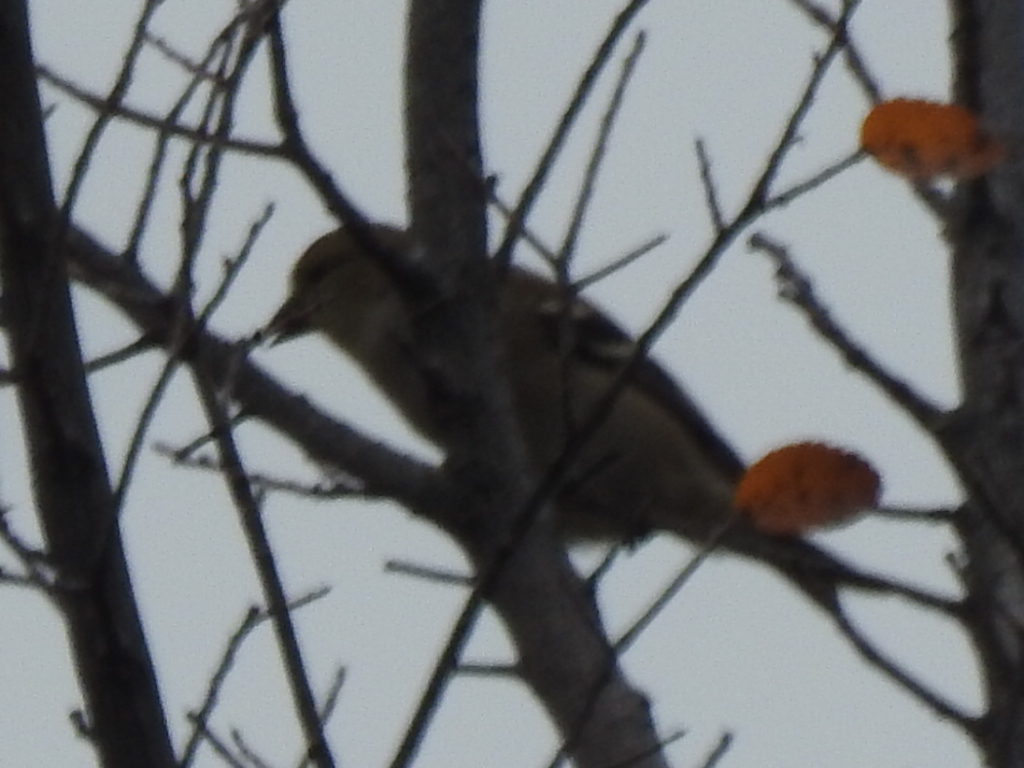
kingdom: Animalia
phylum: Chordata
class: Aves
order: Passeriformes
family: Fringillidae
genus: Spinus
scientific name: Spinus tristis
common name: American goldfinch
